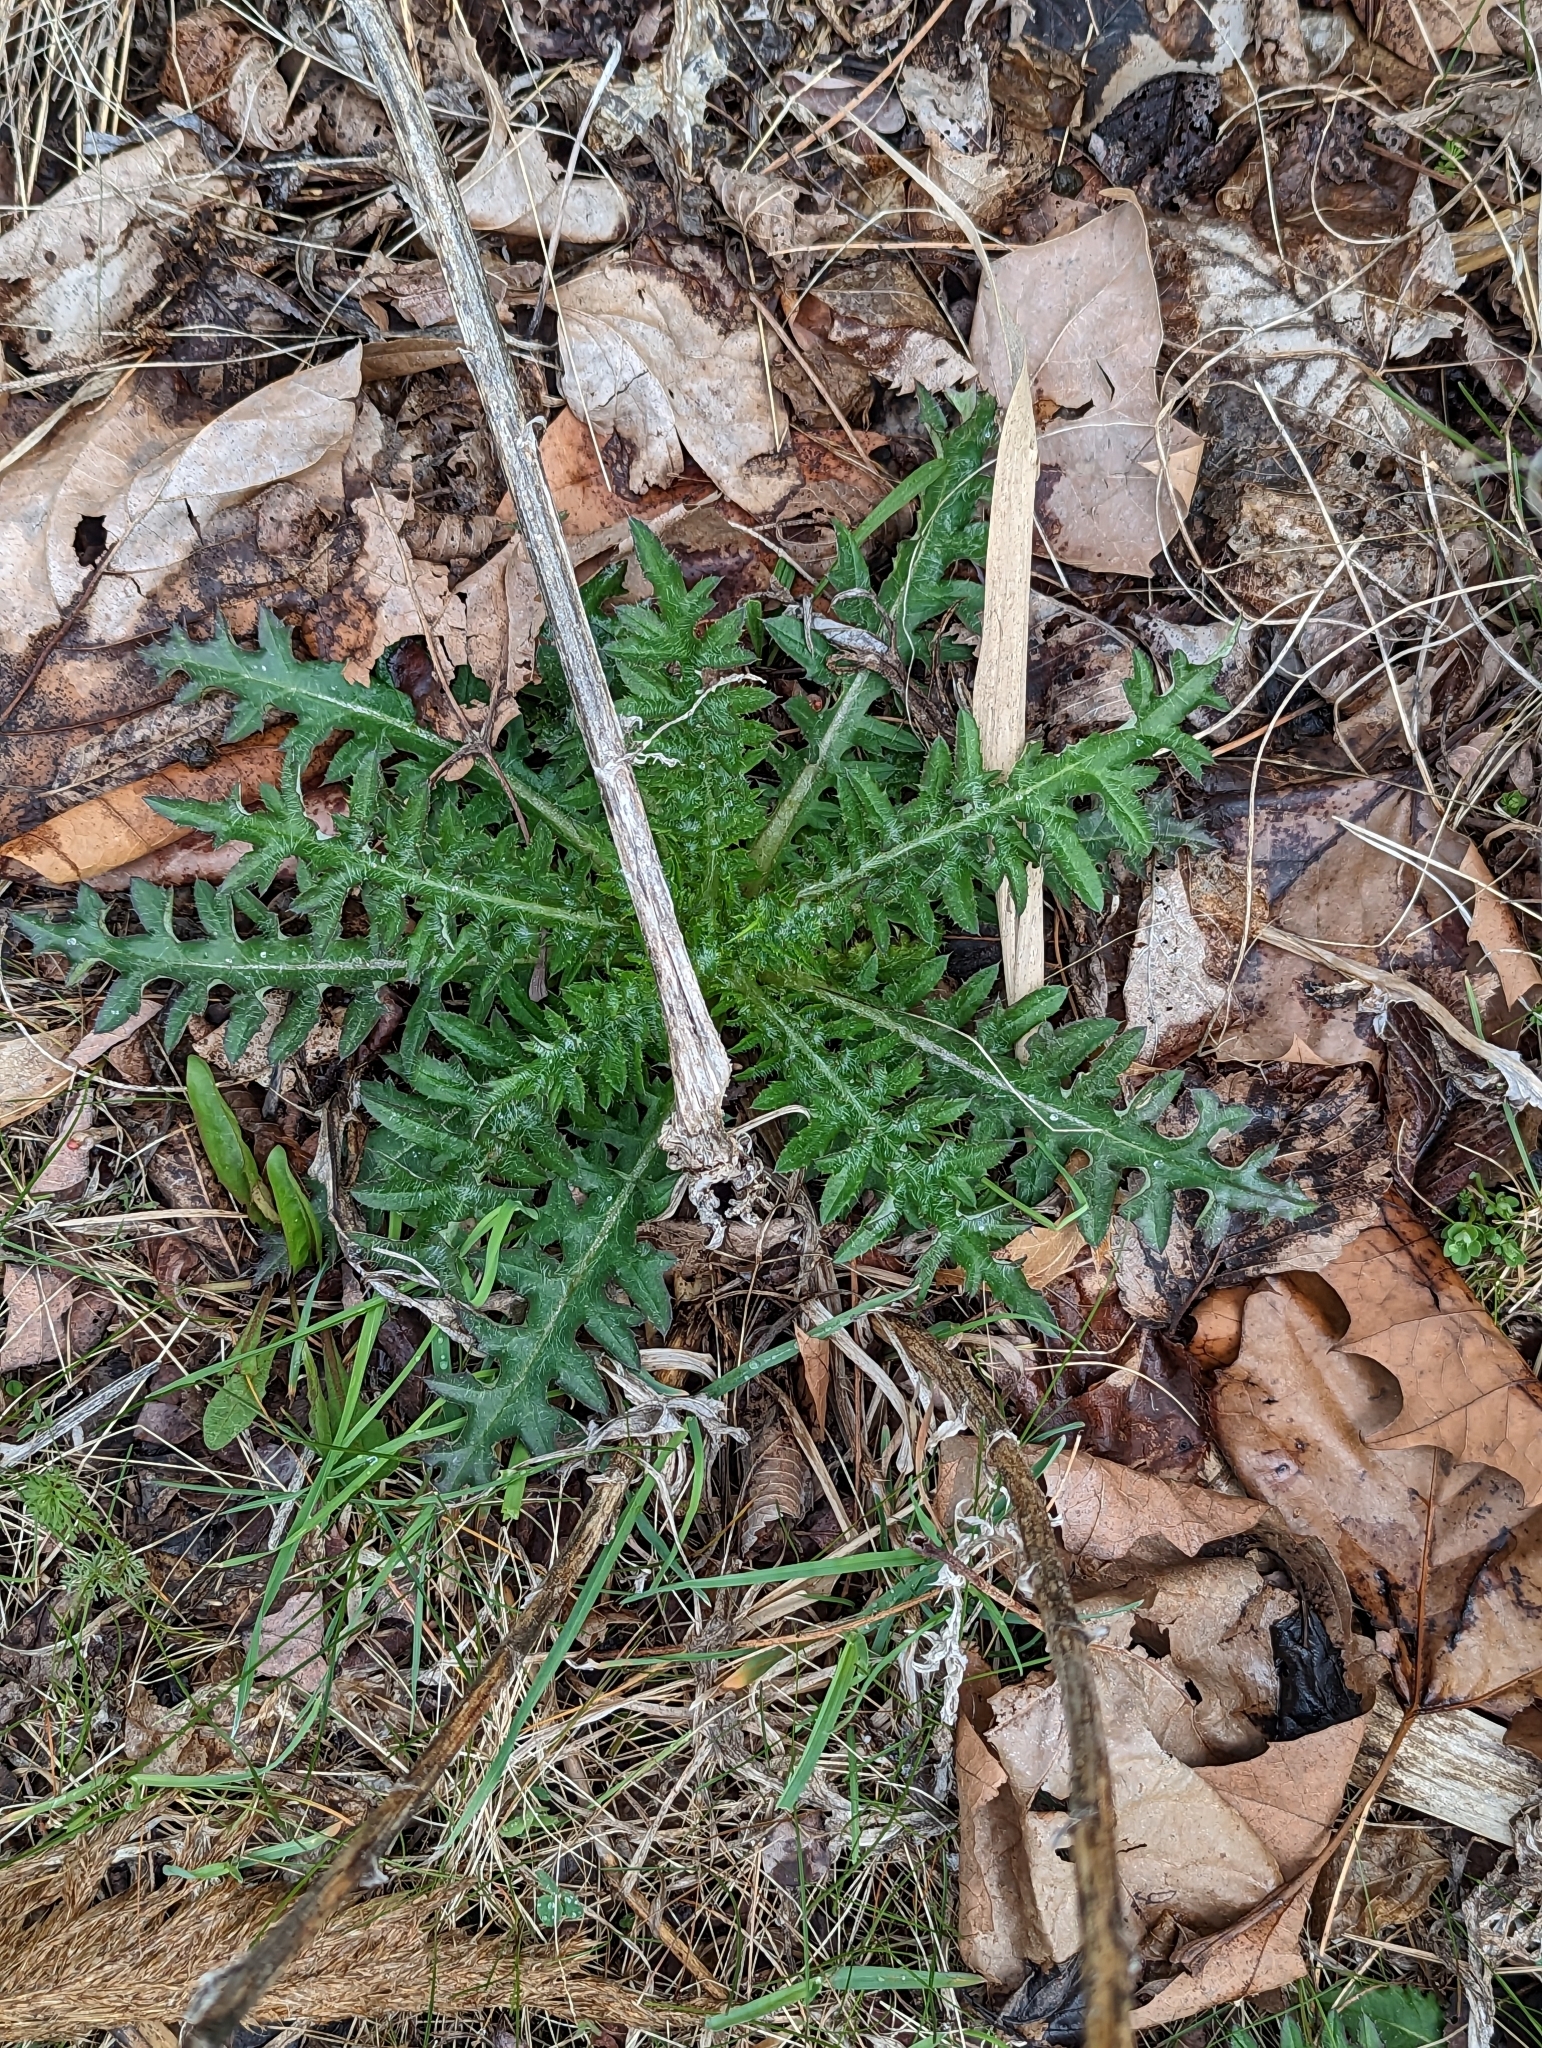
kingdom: Plantae
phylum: Tracheophyta
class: Magnoliopsida
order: Asterales
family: Asteraceae
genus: Cirsium
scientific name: Cirsium muticum
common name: Dunce-nettle
